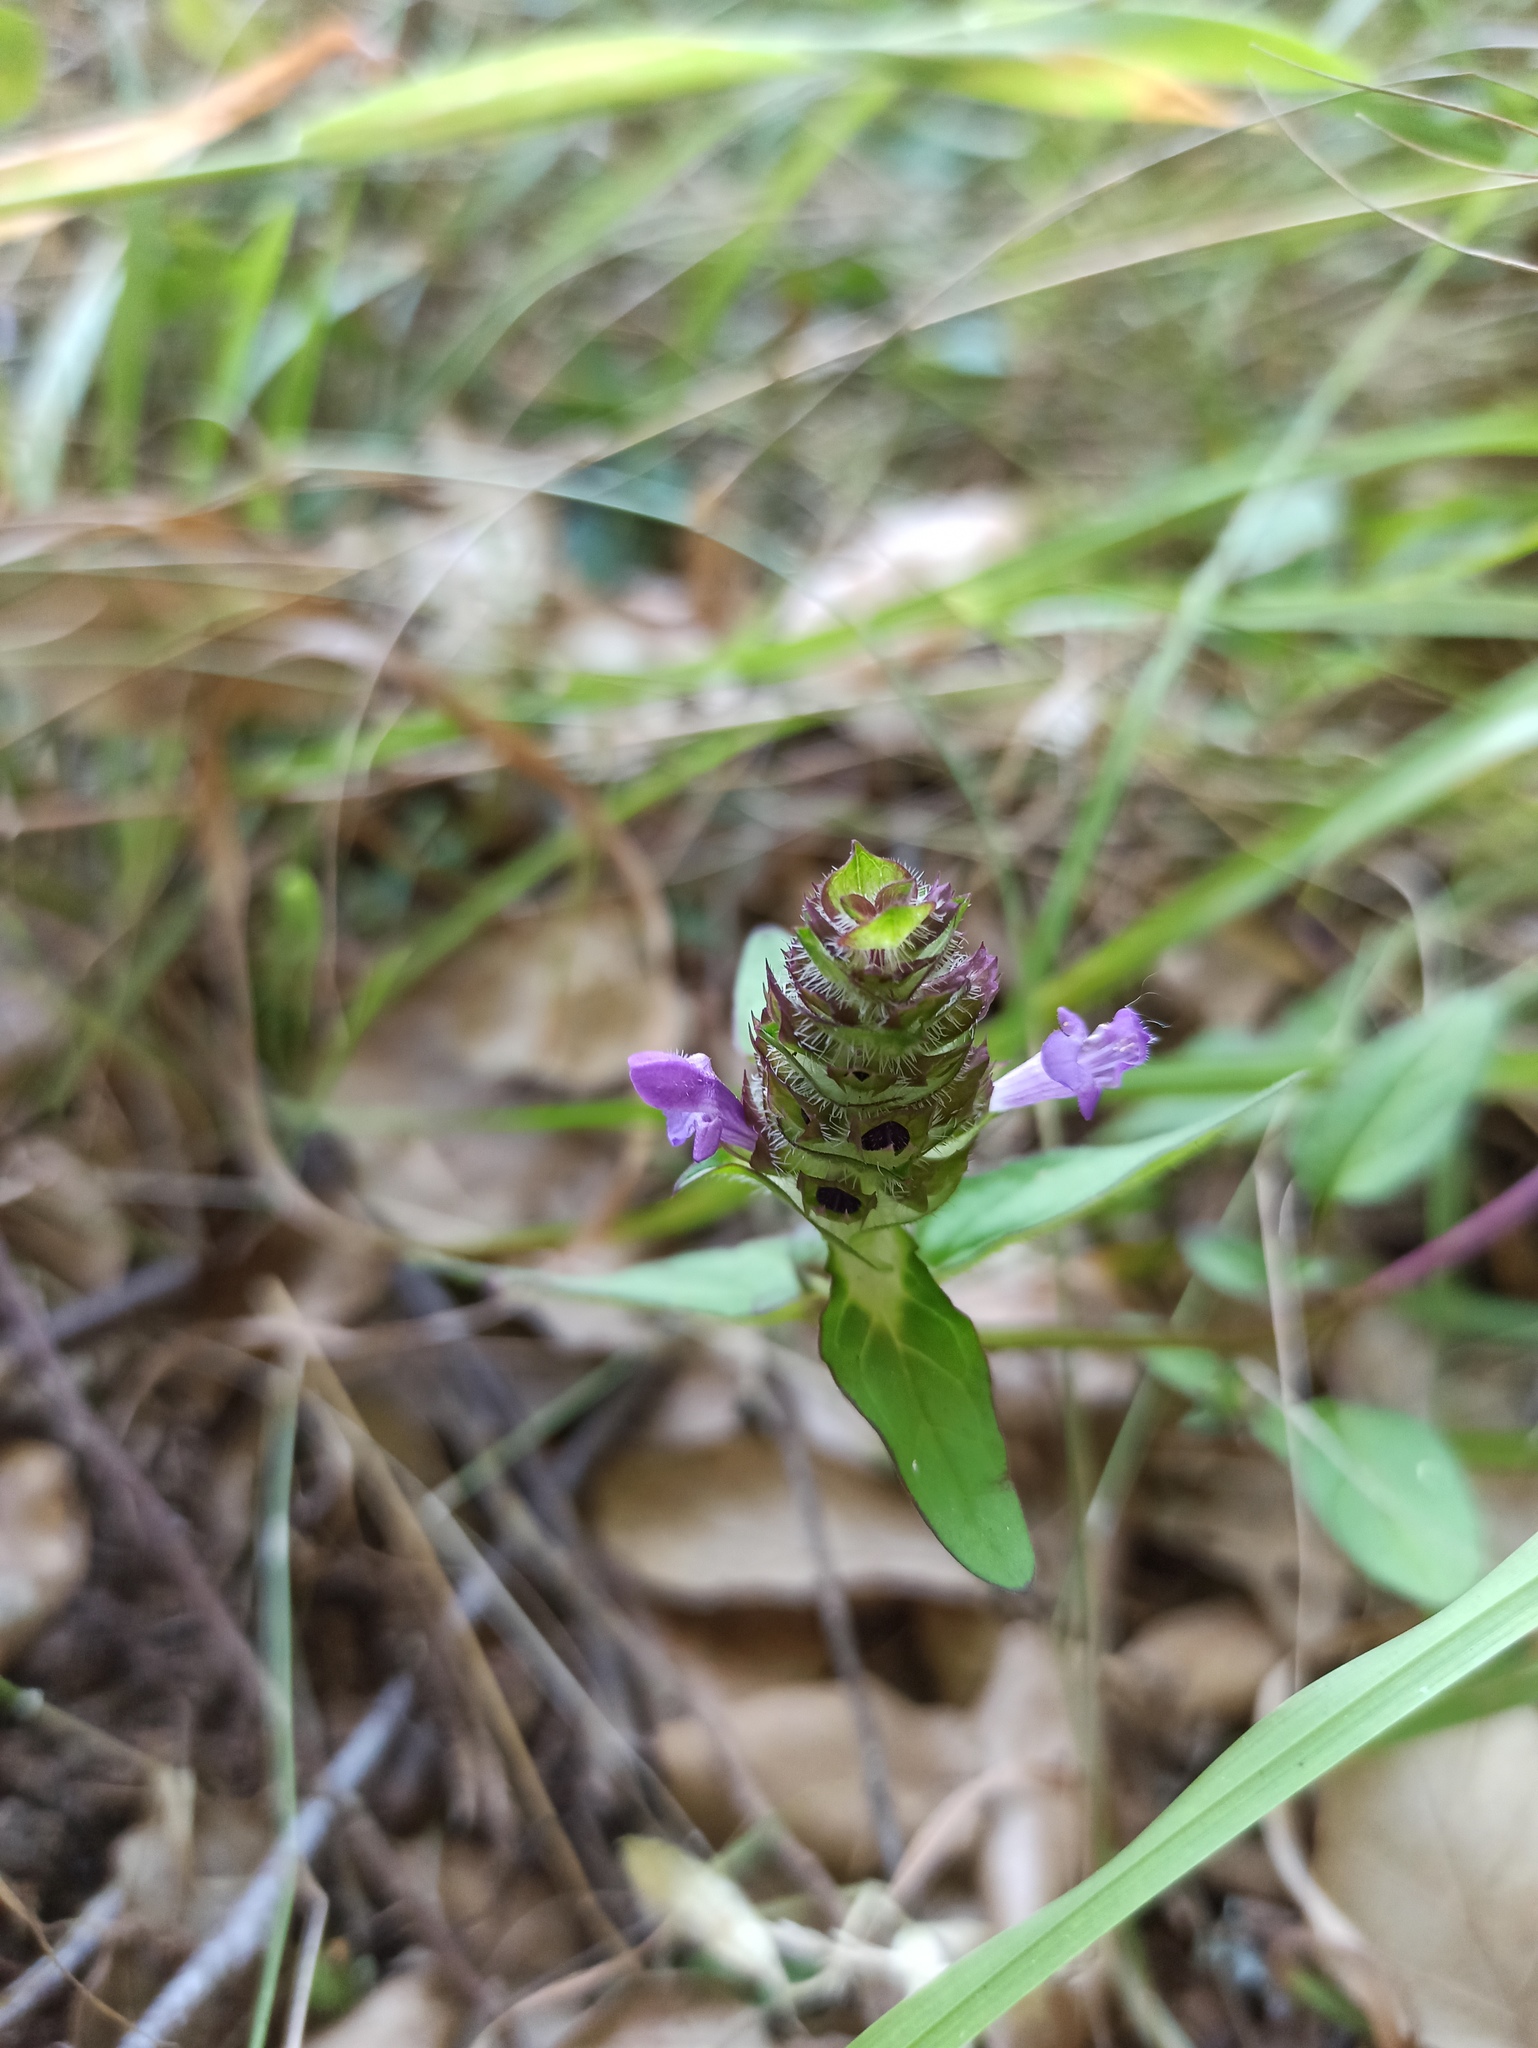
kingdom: Plantae
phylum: Tracheophyta
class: Magnoliopsida
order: Lamiales
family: Lamiaceae
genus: Prunella
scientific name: Prunella vulgaris
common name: Heal-all
